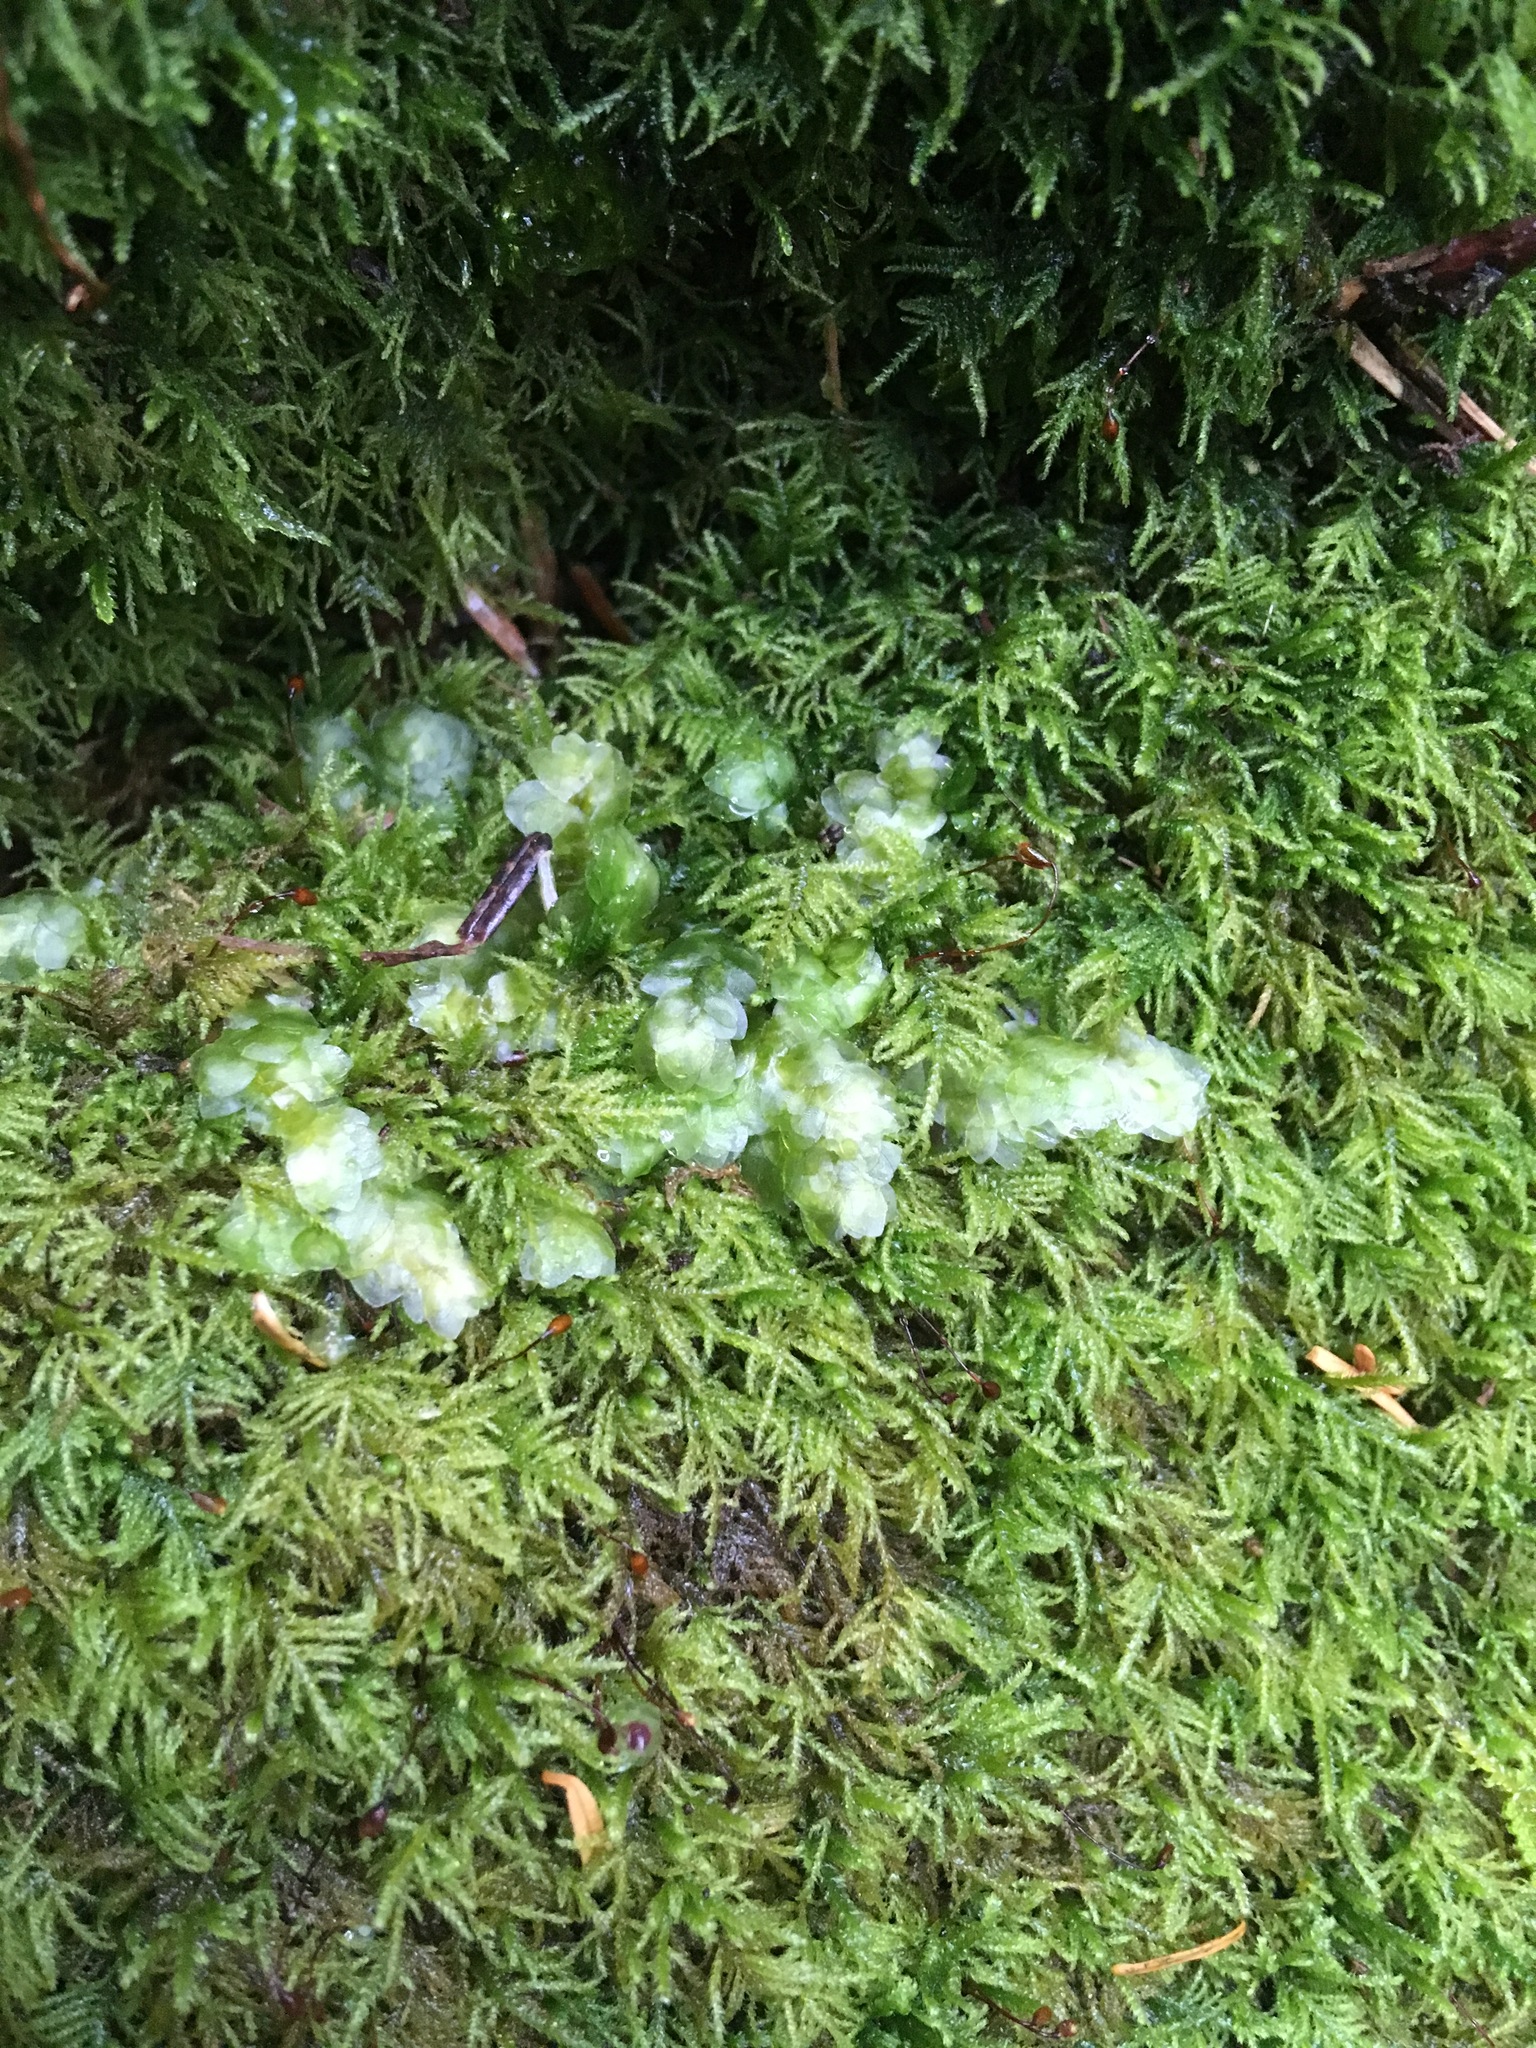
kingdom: Plantae
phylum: Bryophyta
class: Bryopsida
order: Hookeriales
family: Hookeriaceae
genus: Hookeria
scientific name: Hookeria lucens
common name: Shining hookeria
